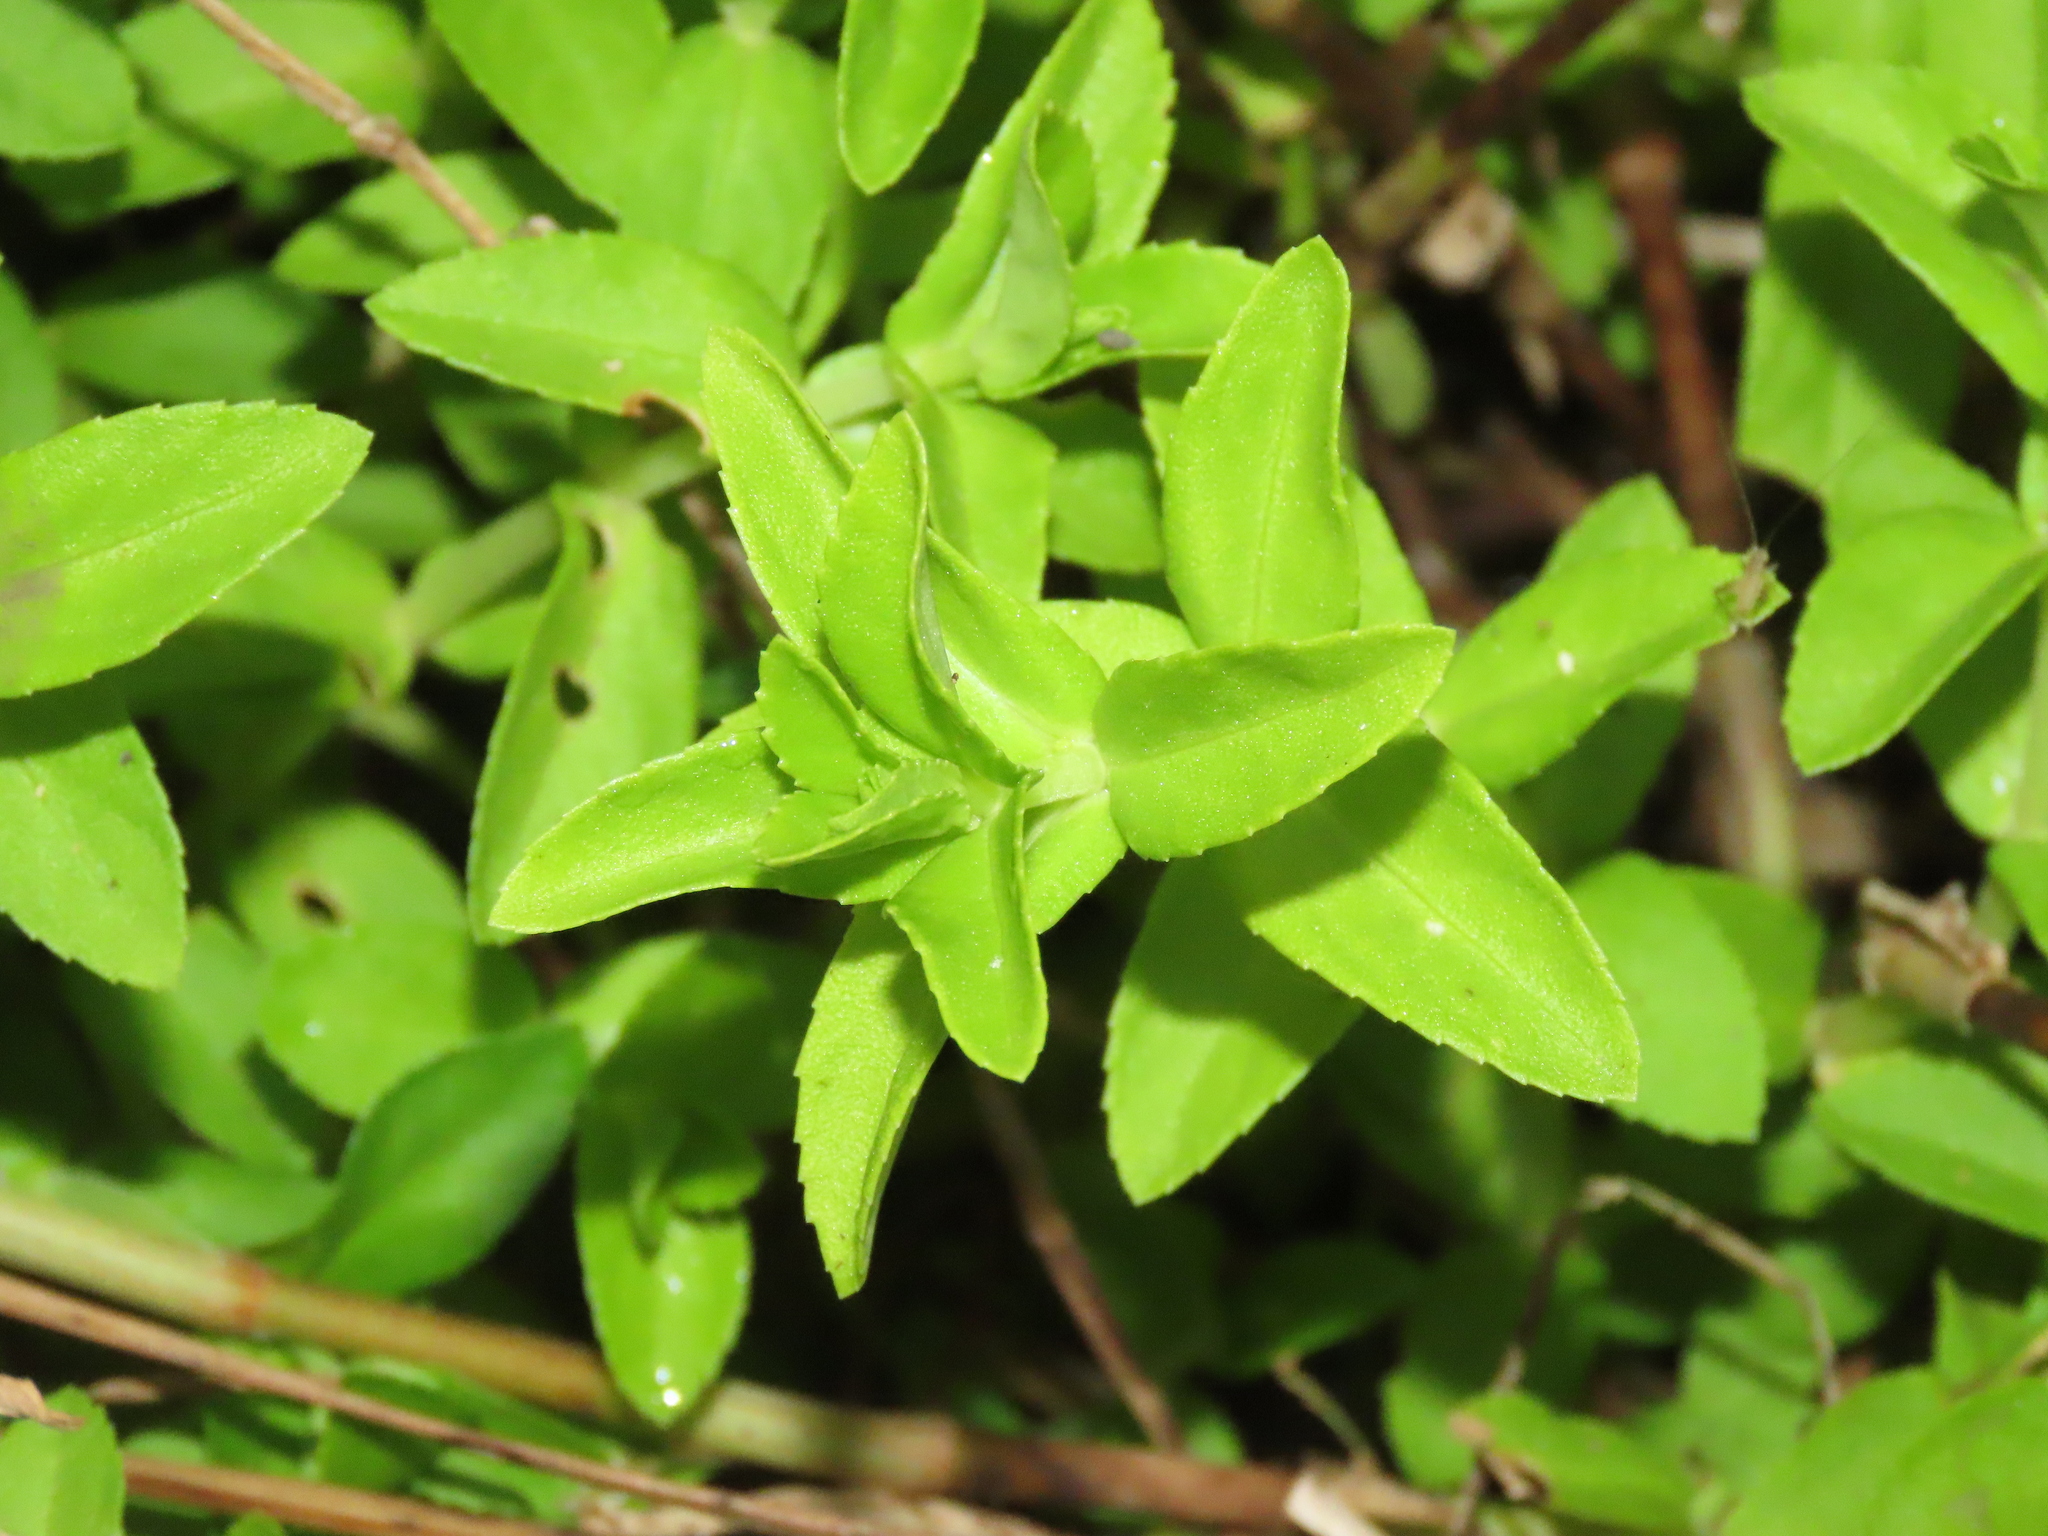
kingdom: Plantae
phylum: Tracheophyta
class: Magnoliopsida
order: Lamiales
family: Plantaginaceae
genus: Limnophila
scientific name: Limnophila aromatica
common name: Finger grass
